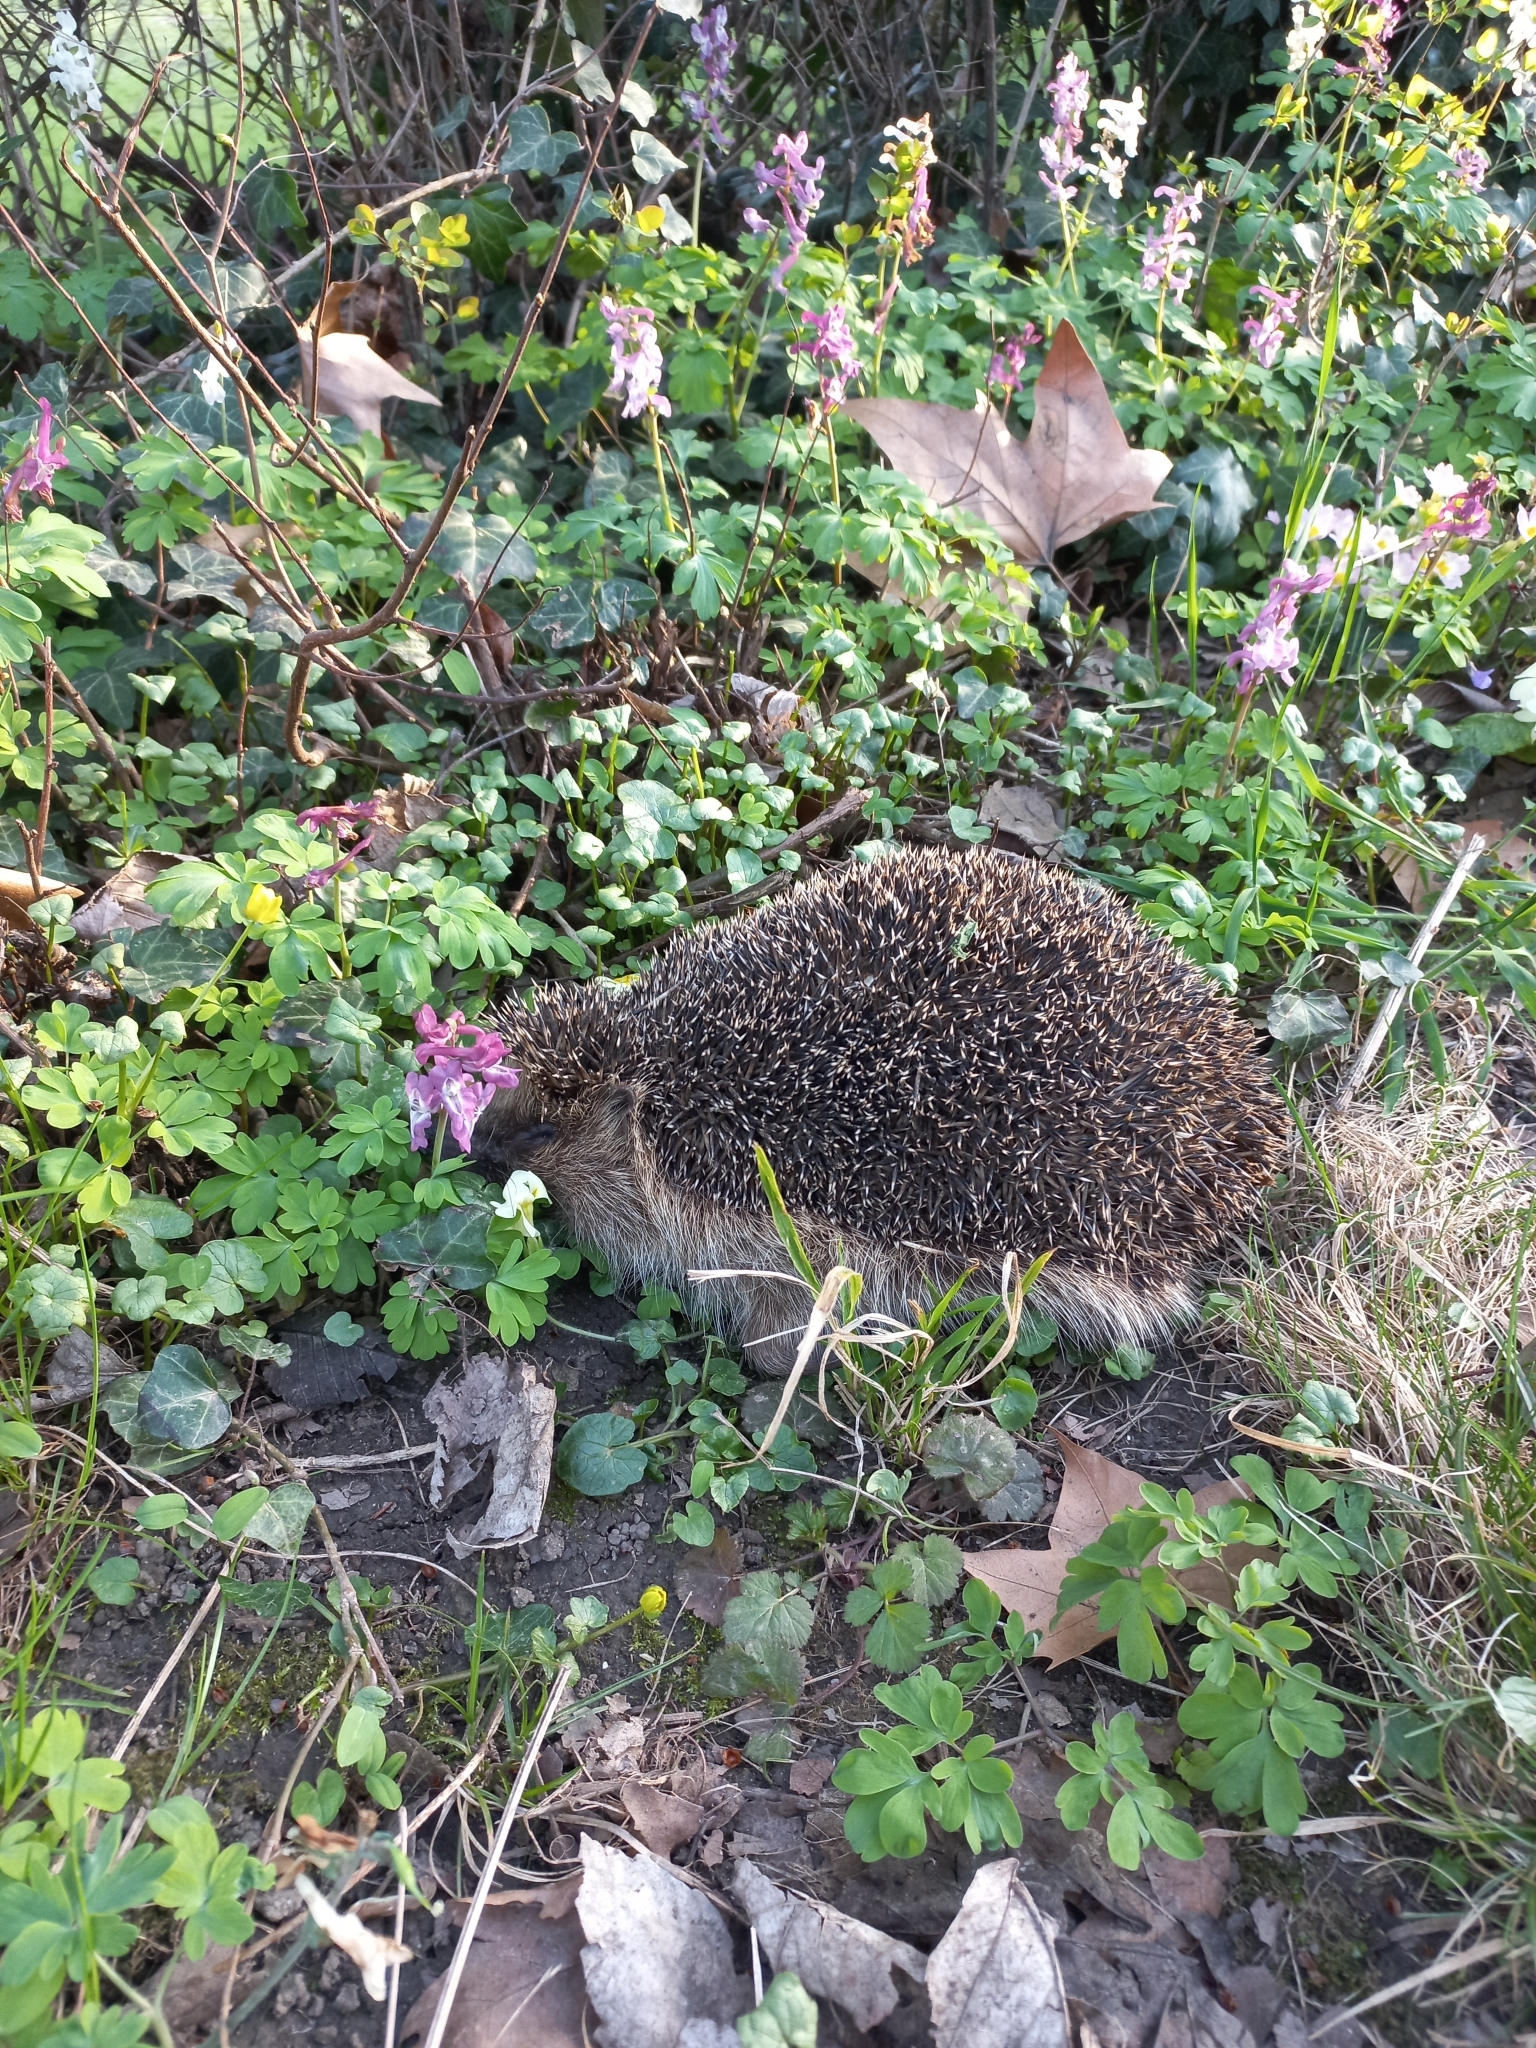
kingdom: Animalia
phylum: Chordata
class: Mammalia
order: Erinaceomorpha
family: Erinaceidae
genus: Erinaceus
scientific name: Erinaceus europaeus
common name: West european hedgehog
